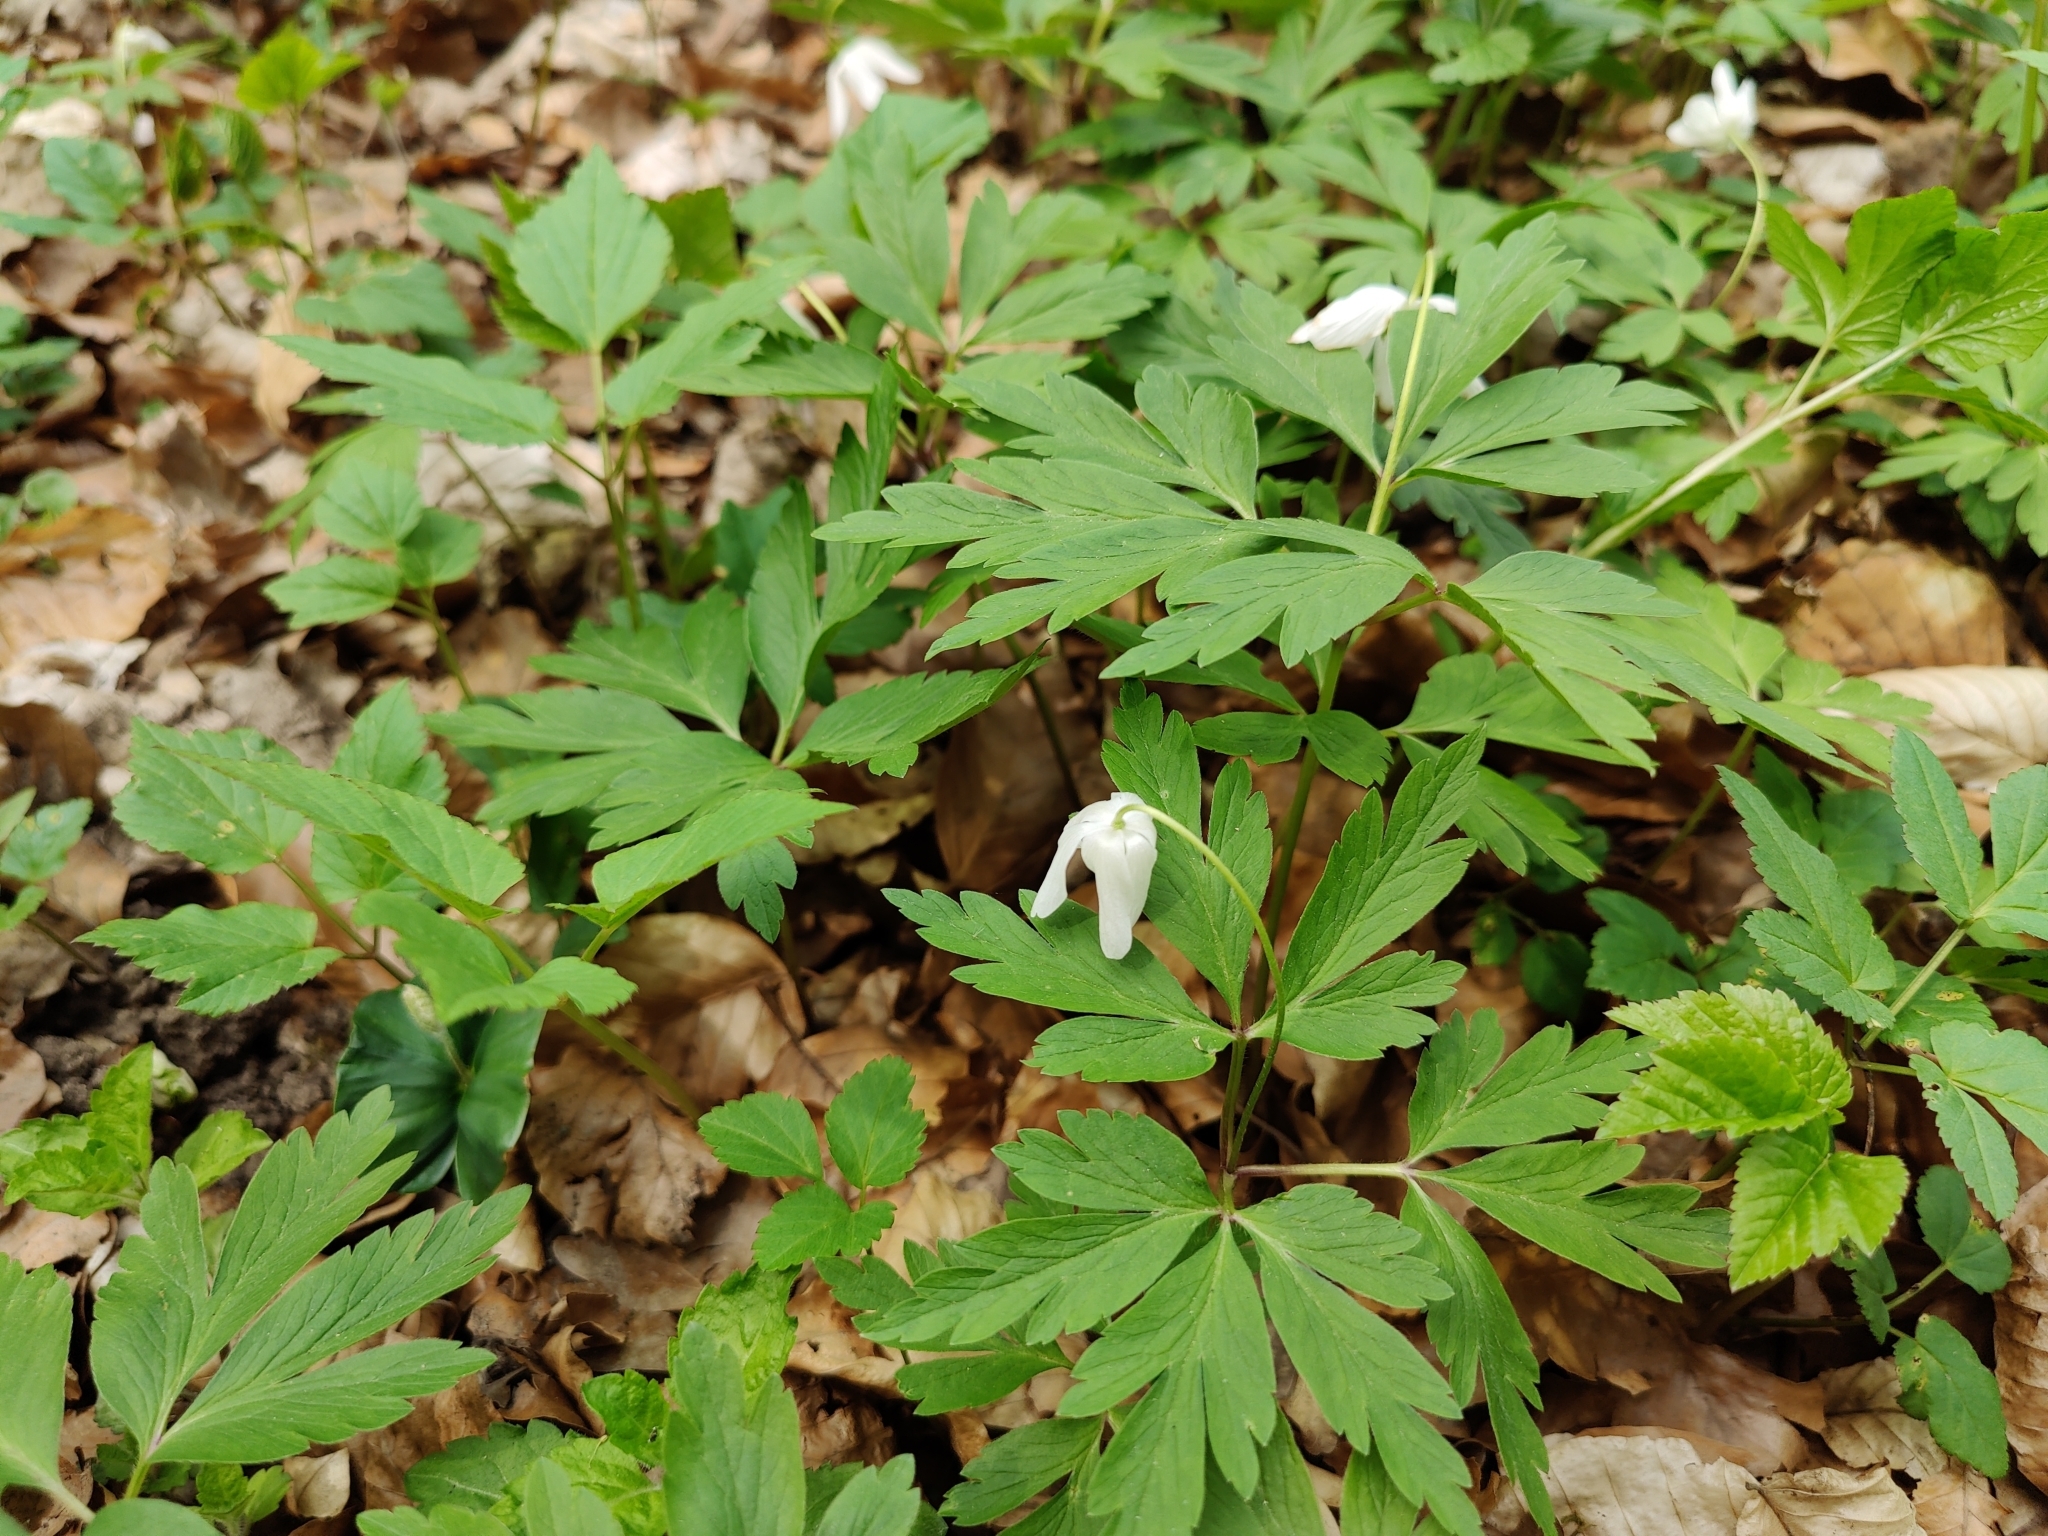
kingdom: Plantae
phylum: Tracheophyta
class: Magnoliopsida
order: Ranunculales
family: Ranunculaceae
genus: Anemone
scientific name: Anemone nemorosa
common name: Wood anemone
